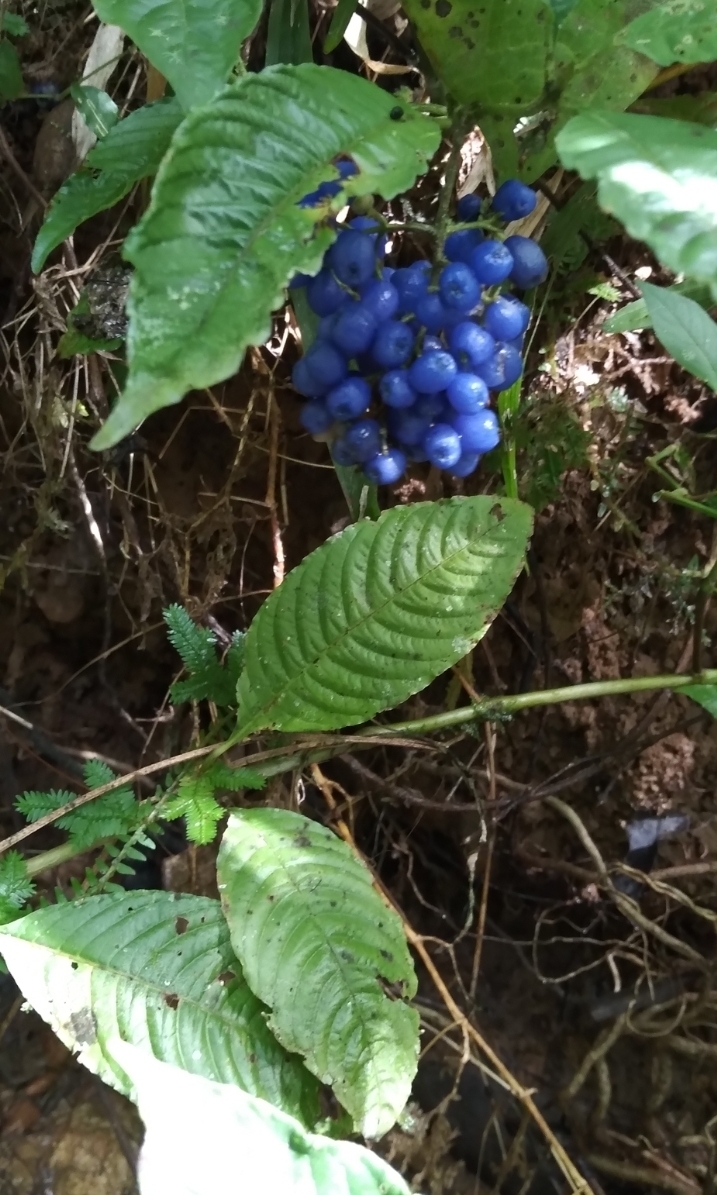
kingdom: Plantae
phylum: Tracheophyta
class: Magnoliopsida
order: Gentianales
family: Rubiaceae
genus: Palicourea
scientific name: Palicourea cyanococca
